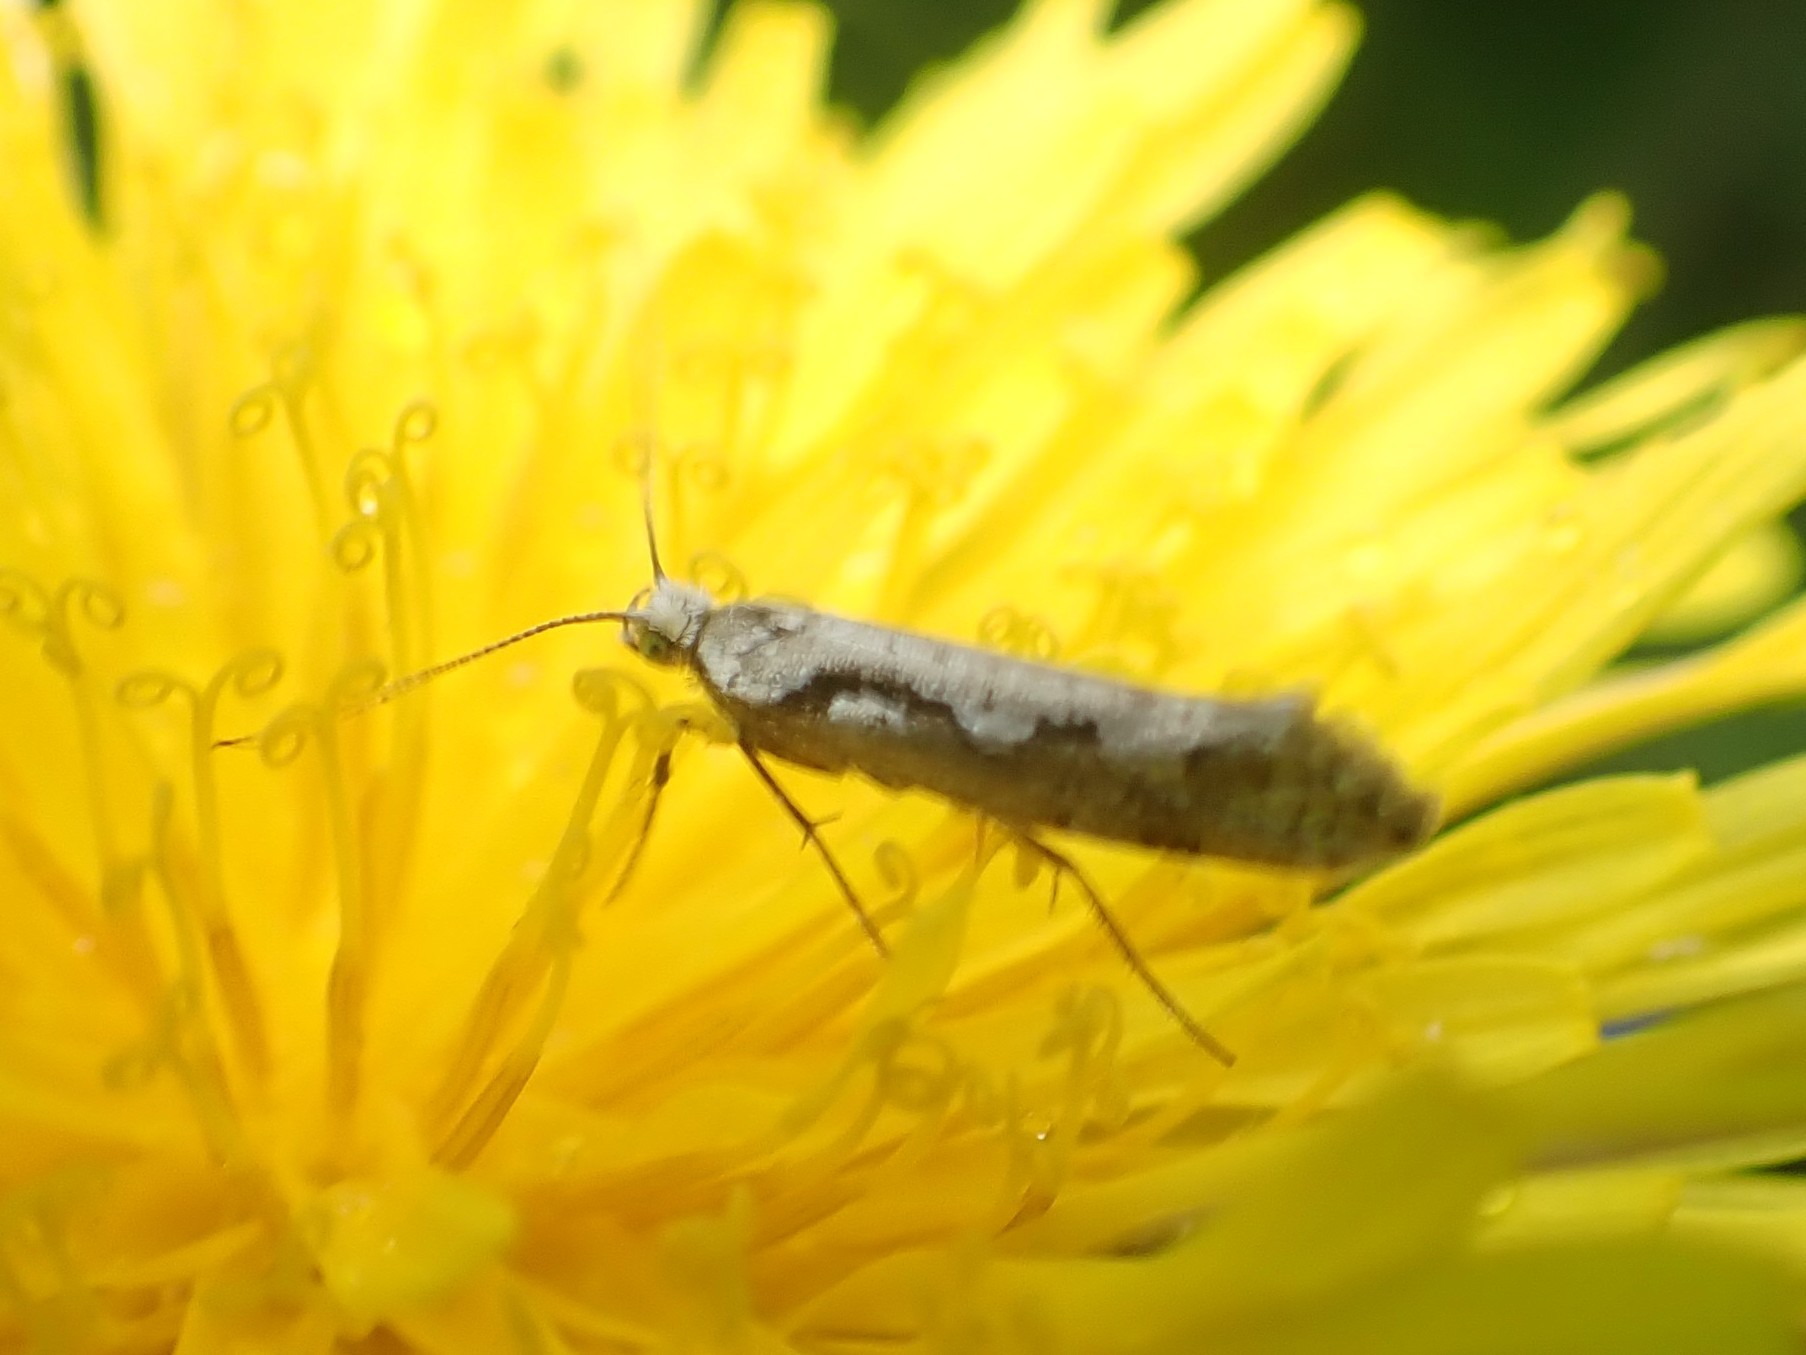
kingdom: Animalia
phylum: Arthropoda
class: Insecta
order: Lepidoptera
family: Plutellidae
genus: Rhigognostis
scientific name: Rhigognostis interrupta
